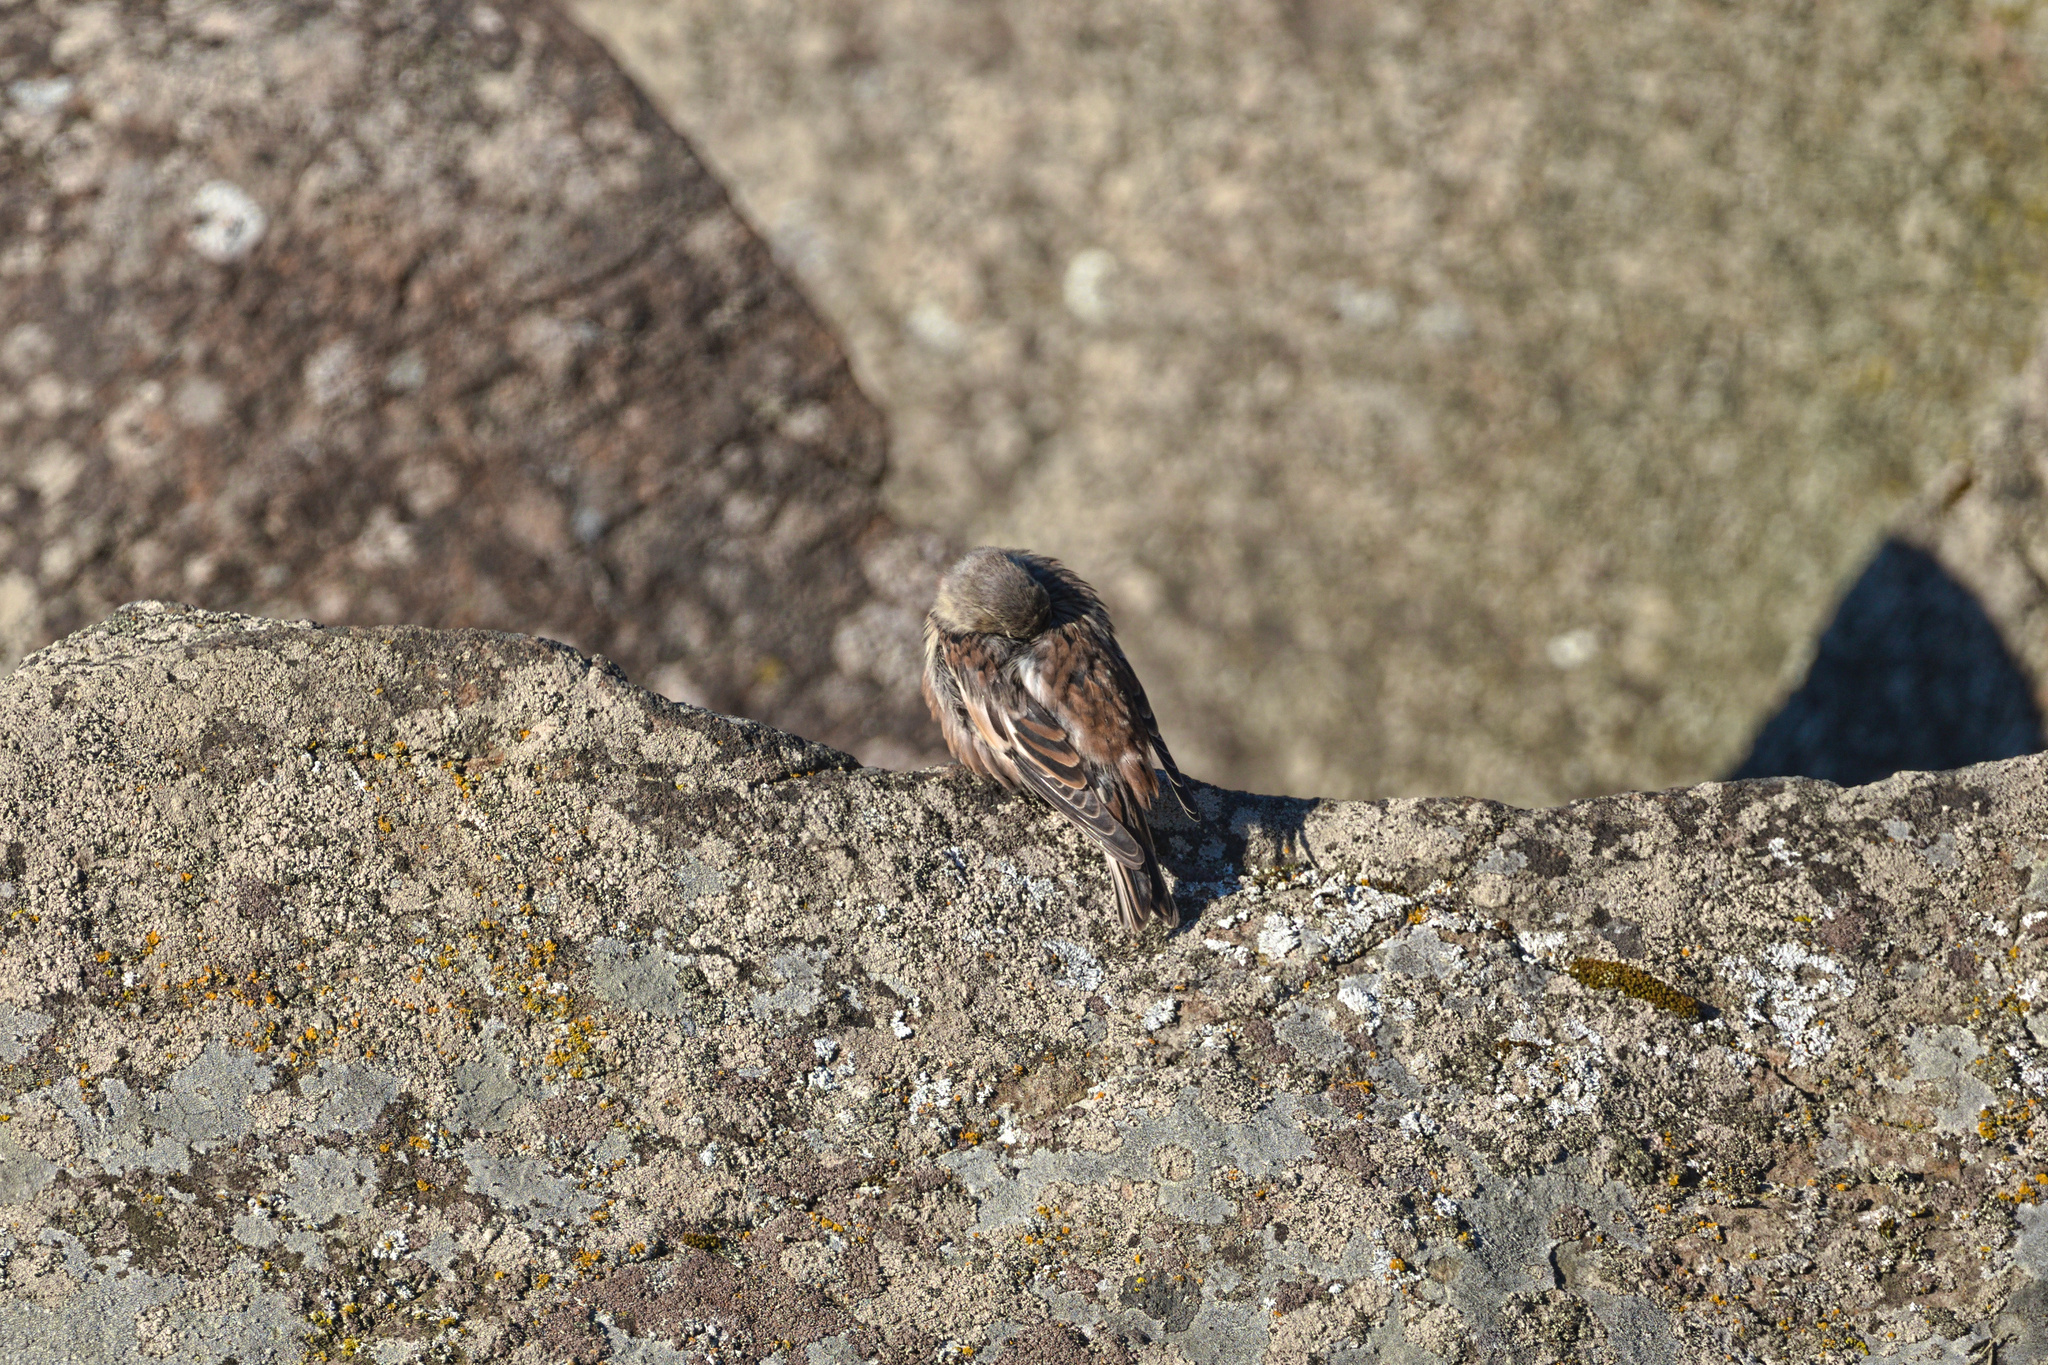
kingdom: Animalia
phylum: Chordata
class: Aves
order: Passeriformes
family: Calcariidae
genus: Plectrophenax
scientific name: Plectrophenax nivalis
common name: Snow bunting
